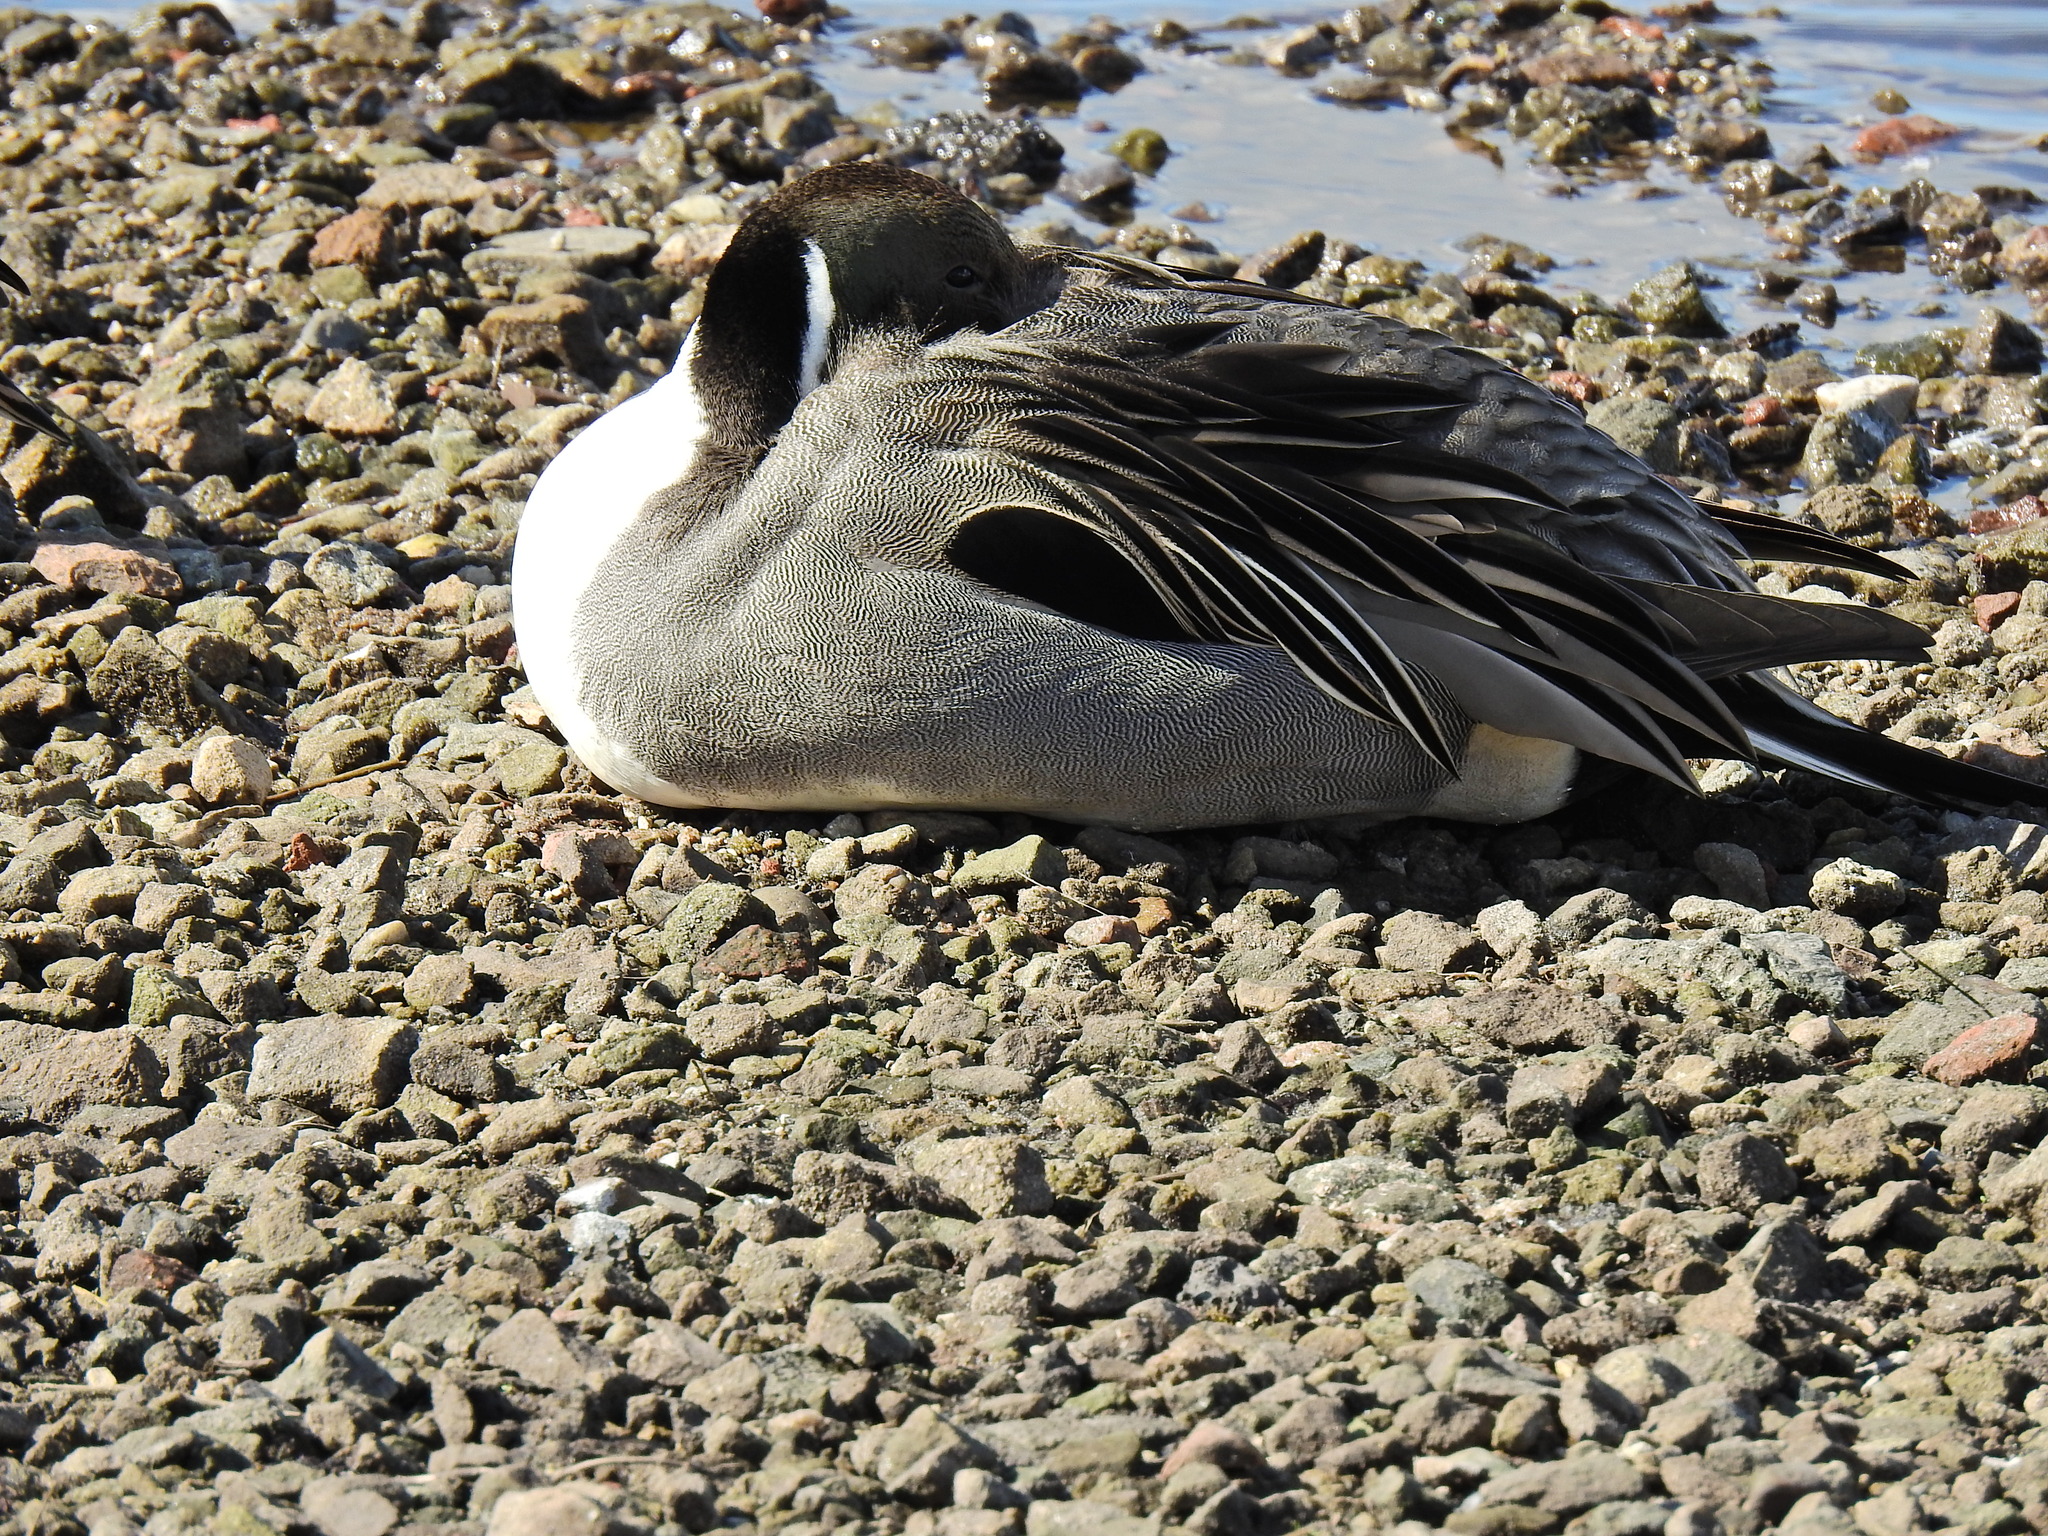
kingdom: Animalia
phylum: Chordata
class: Aves
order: Anseriformes
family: Anatidae
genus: Anas
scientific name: Anas acuta
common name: Northern pintail
